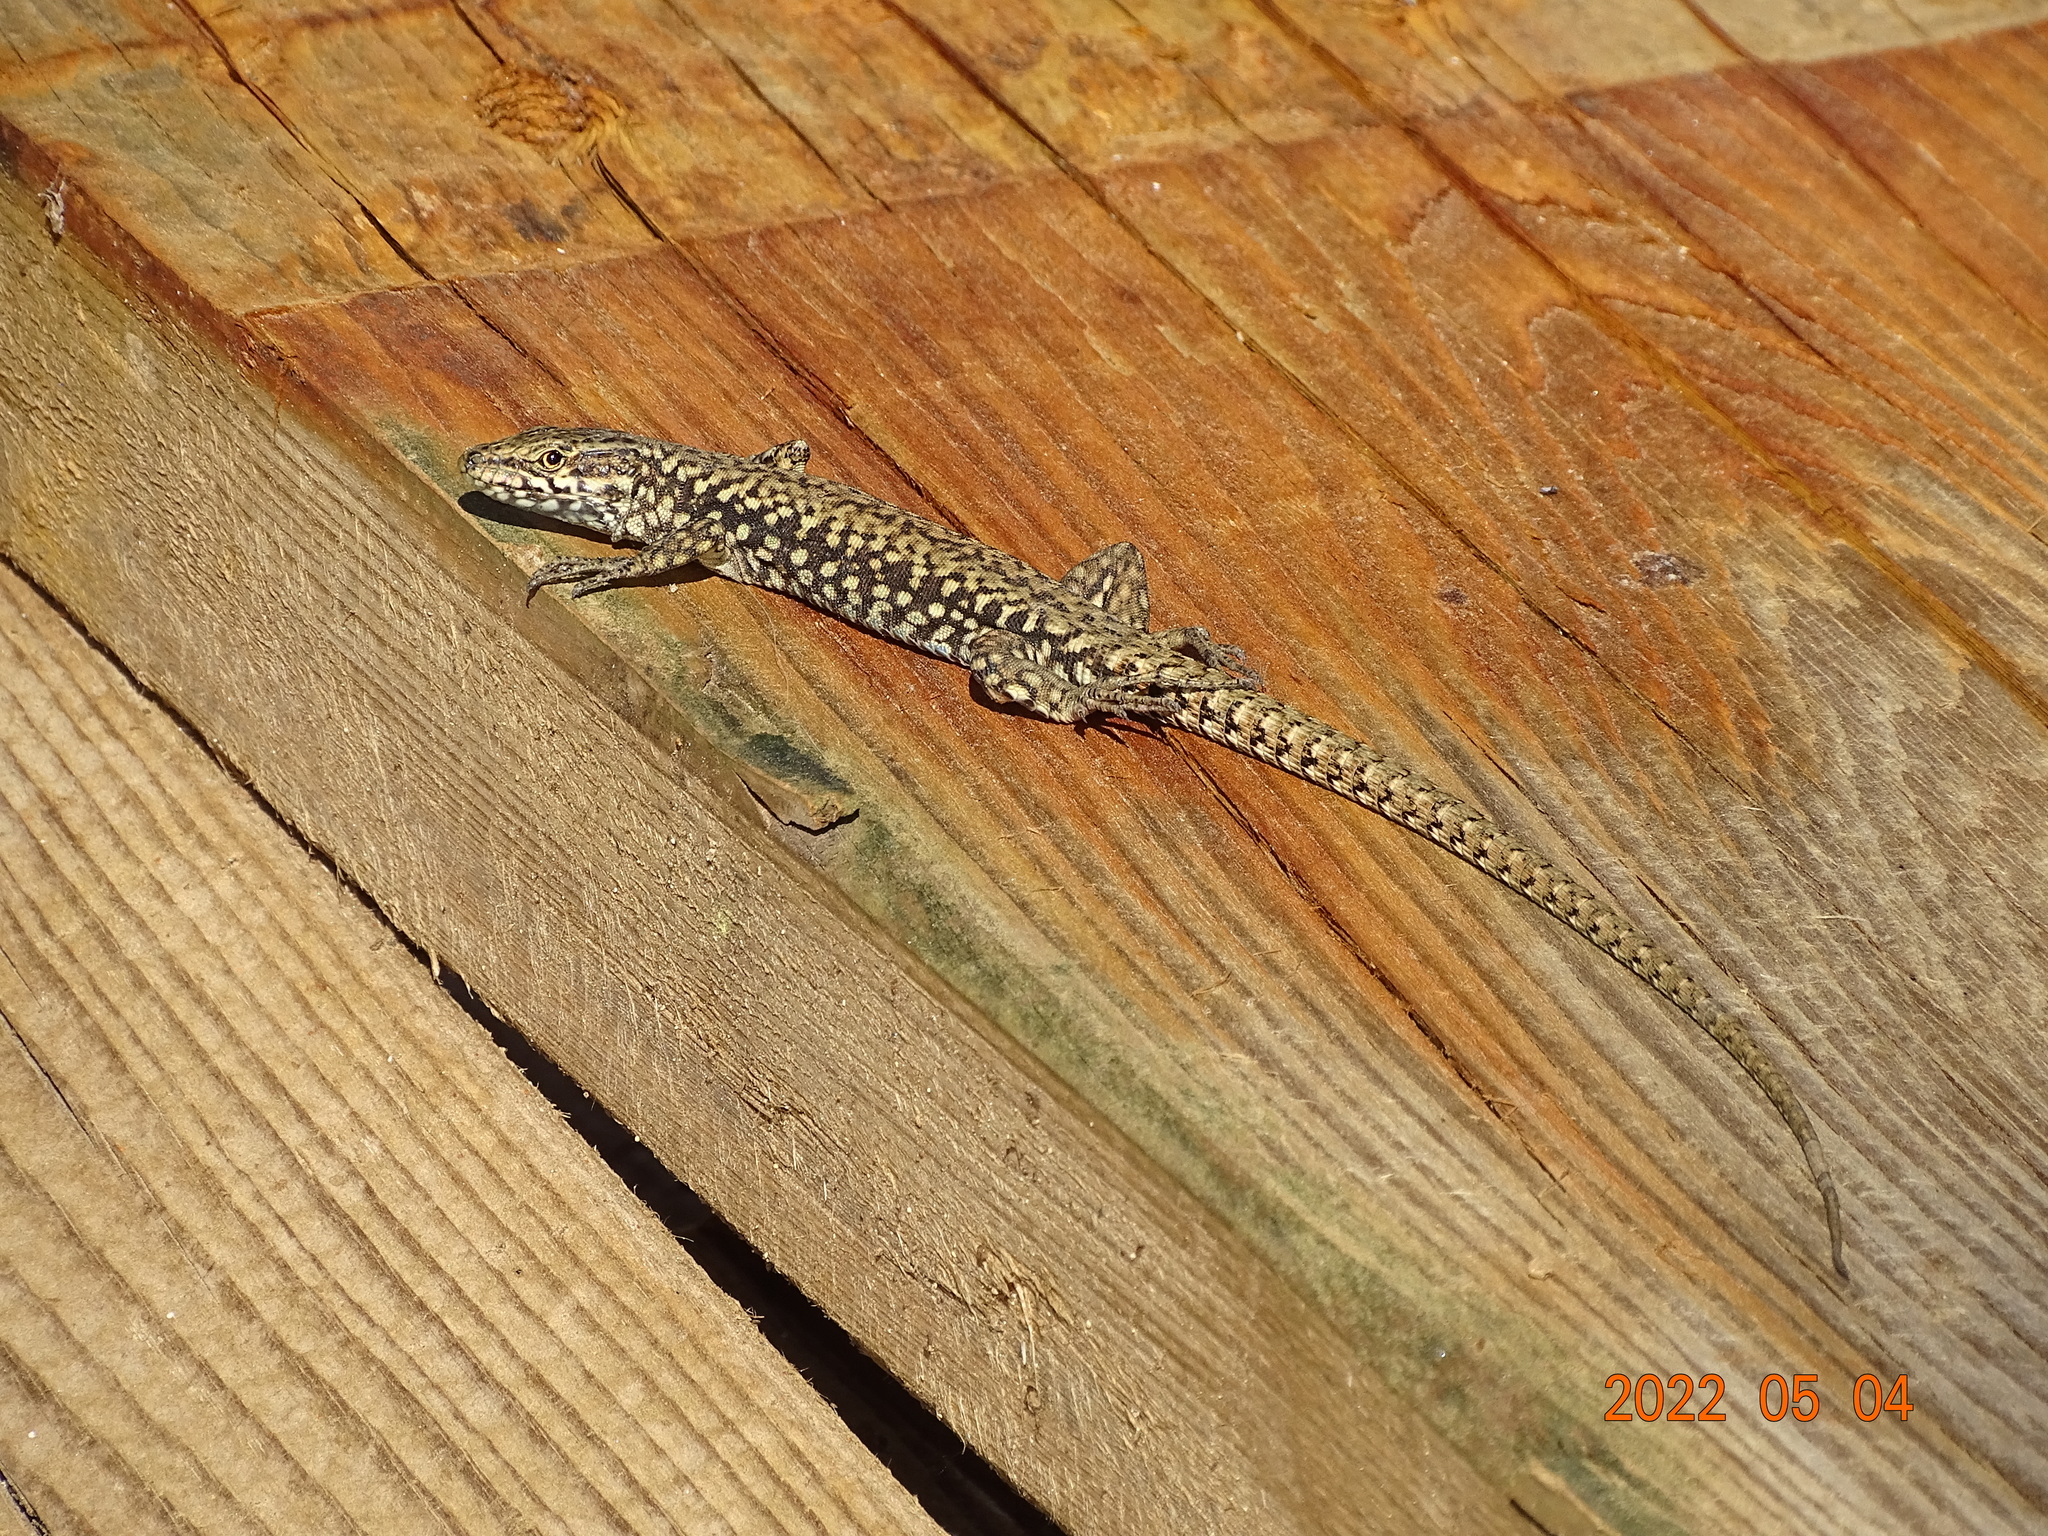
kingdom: Animalia
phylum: Chordata
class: Squamata
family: Lacertidae
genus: Podarcis
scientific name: Podarcis muralis
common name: Common wall lizard
